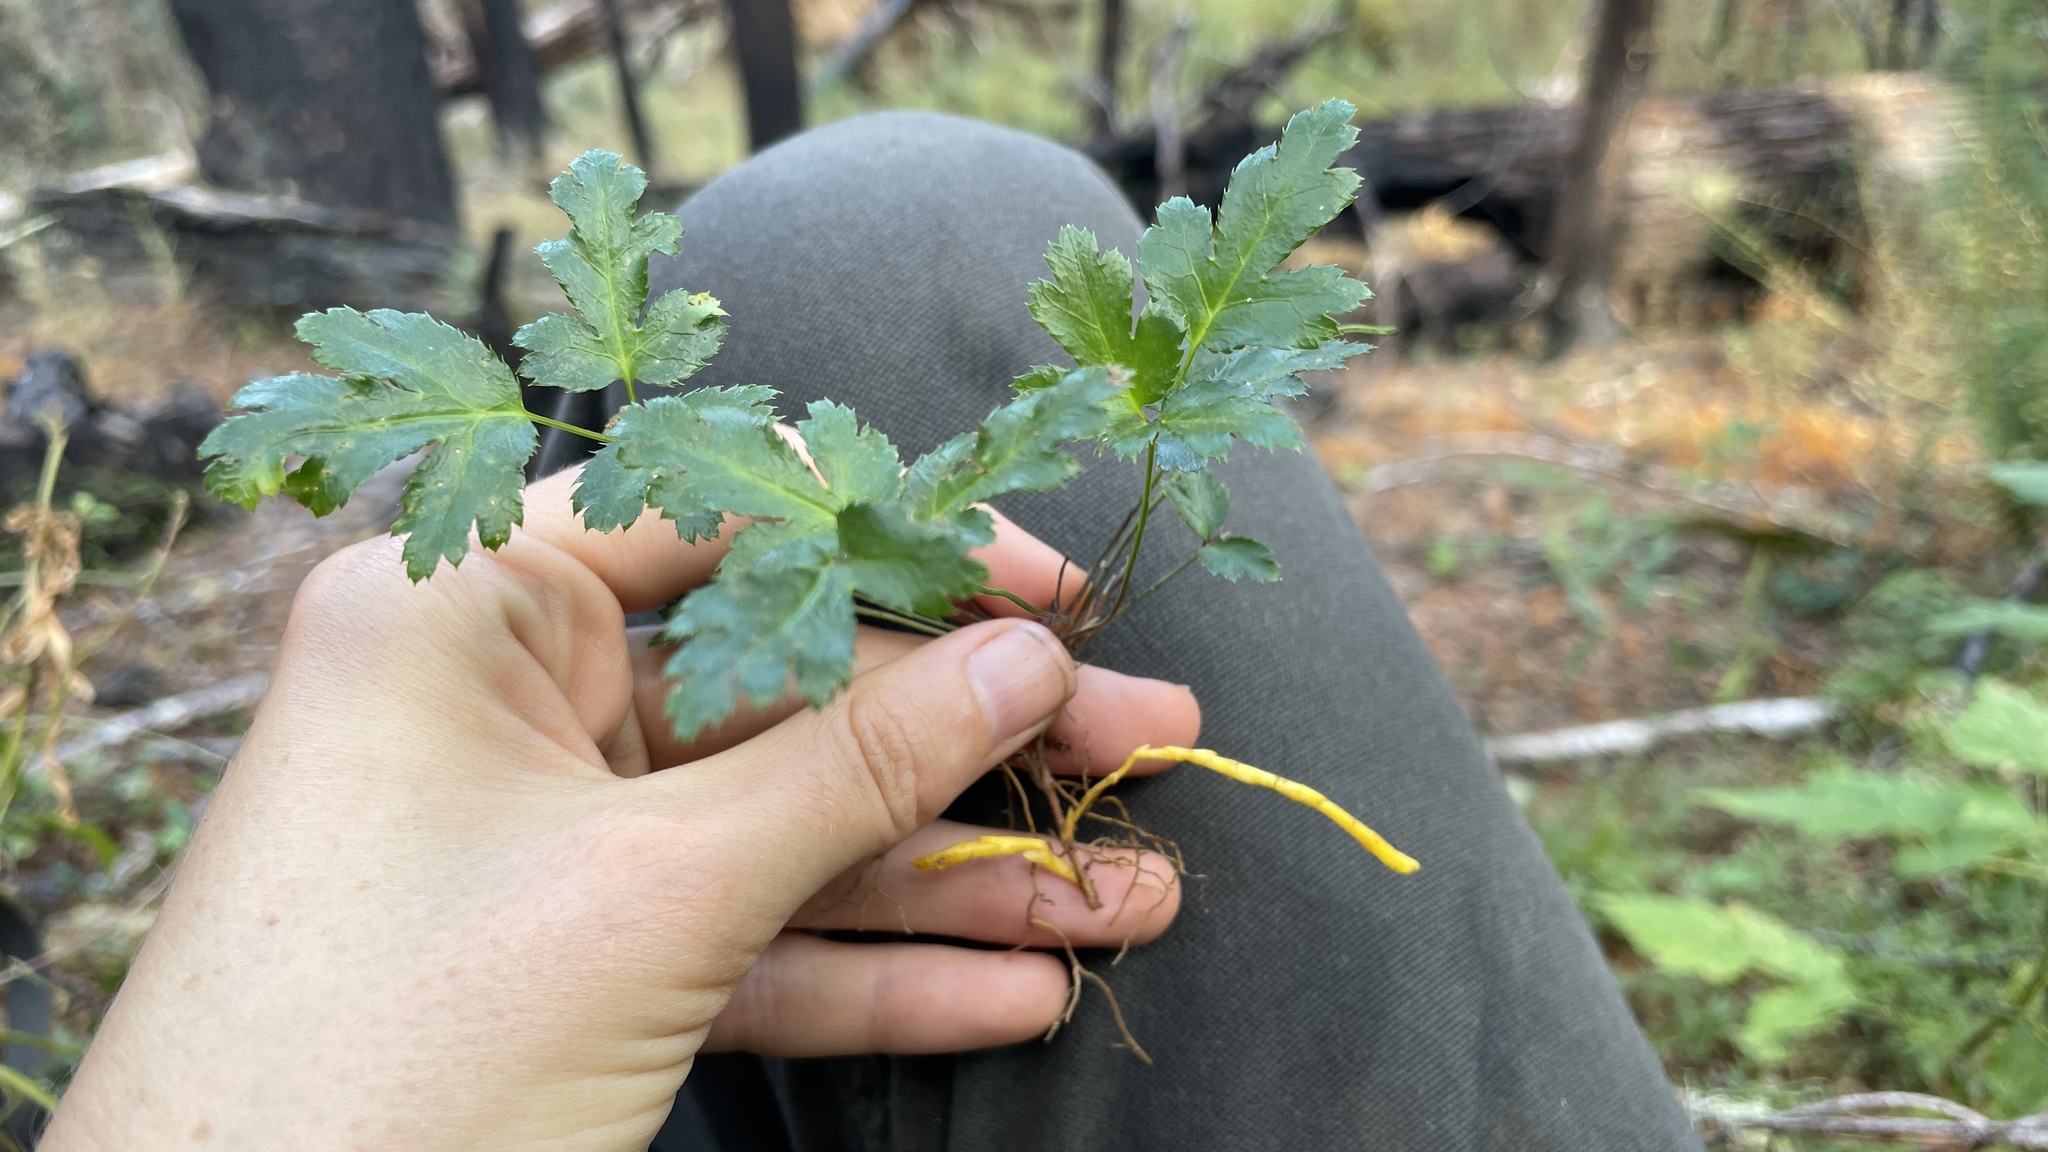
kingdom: Plantae
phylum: Tracheophyta
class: Magnoliopsida
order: Ranunculales
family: Ranunculaceae
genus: Coptis
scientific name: Coptis laciniata
